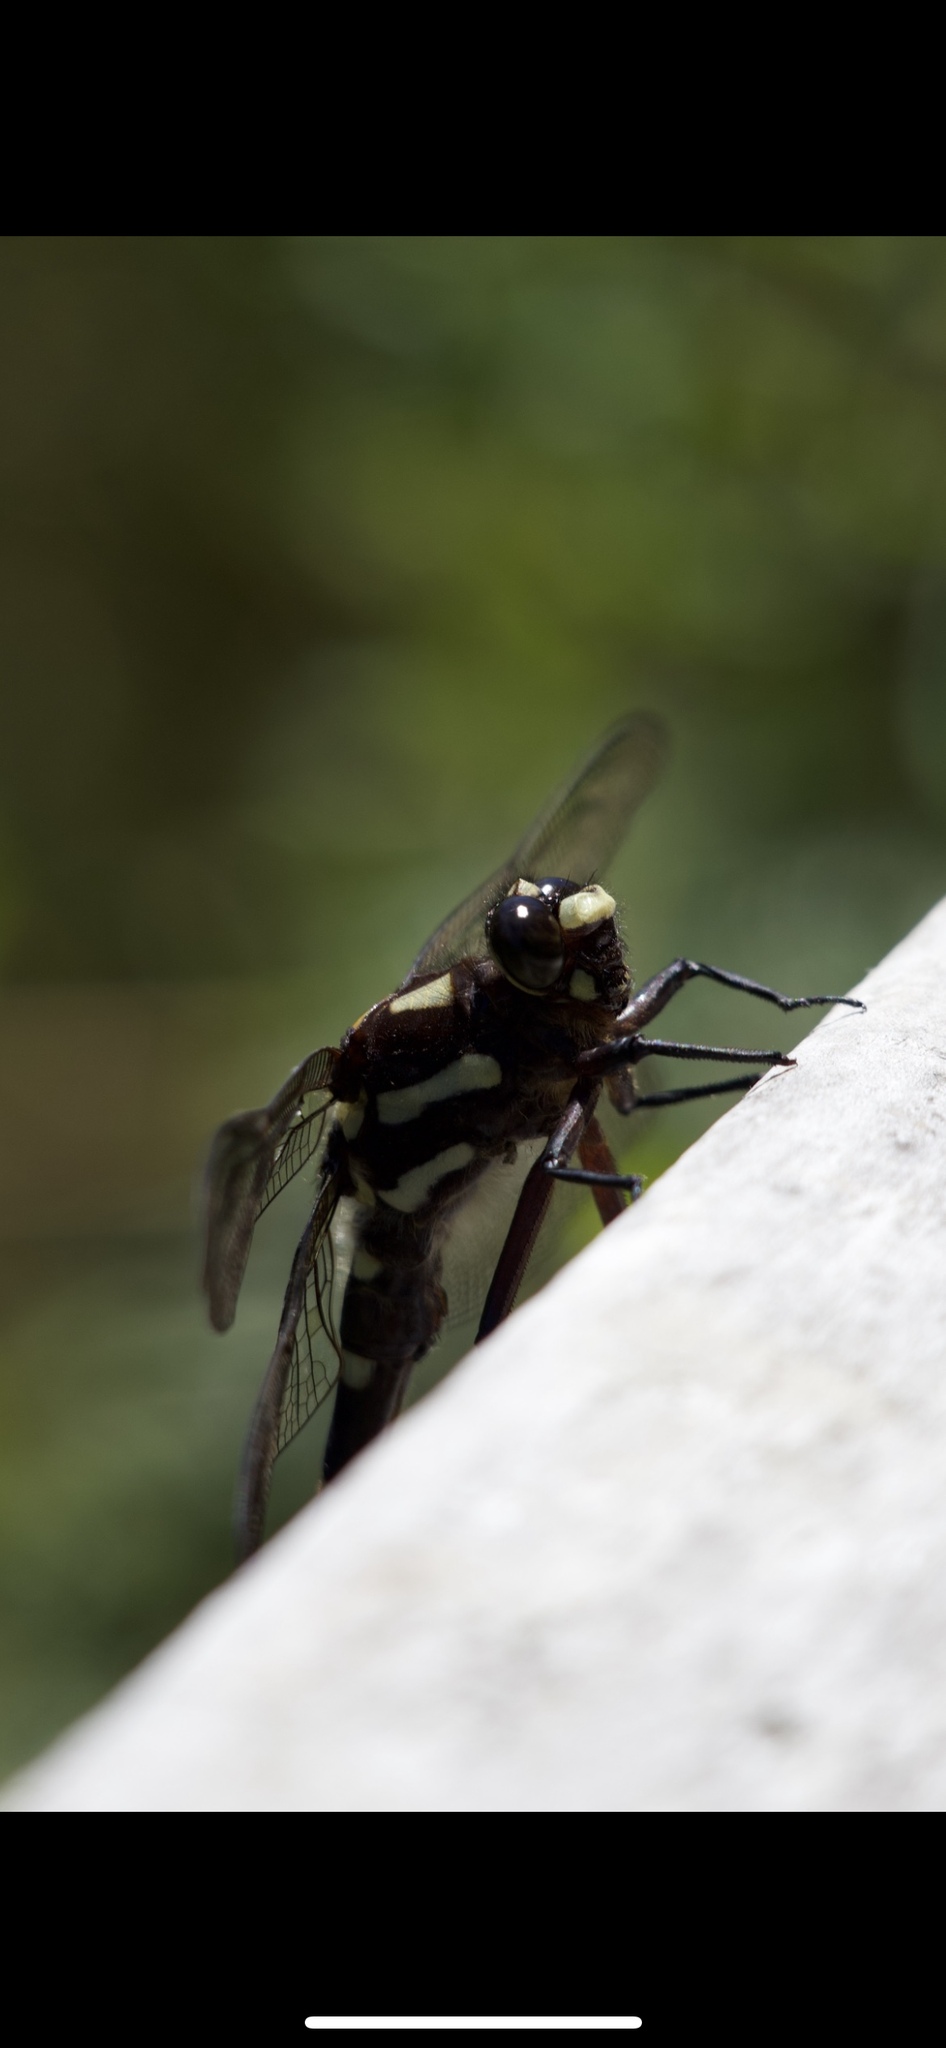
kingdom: Animalia
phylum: Arthropoda
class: Insecta
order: Odonata
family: Petaluridae
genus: Uropetala
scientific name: Uropetala carovei
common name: Bush giant dragonfly
